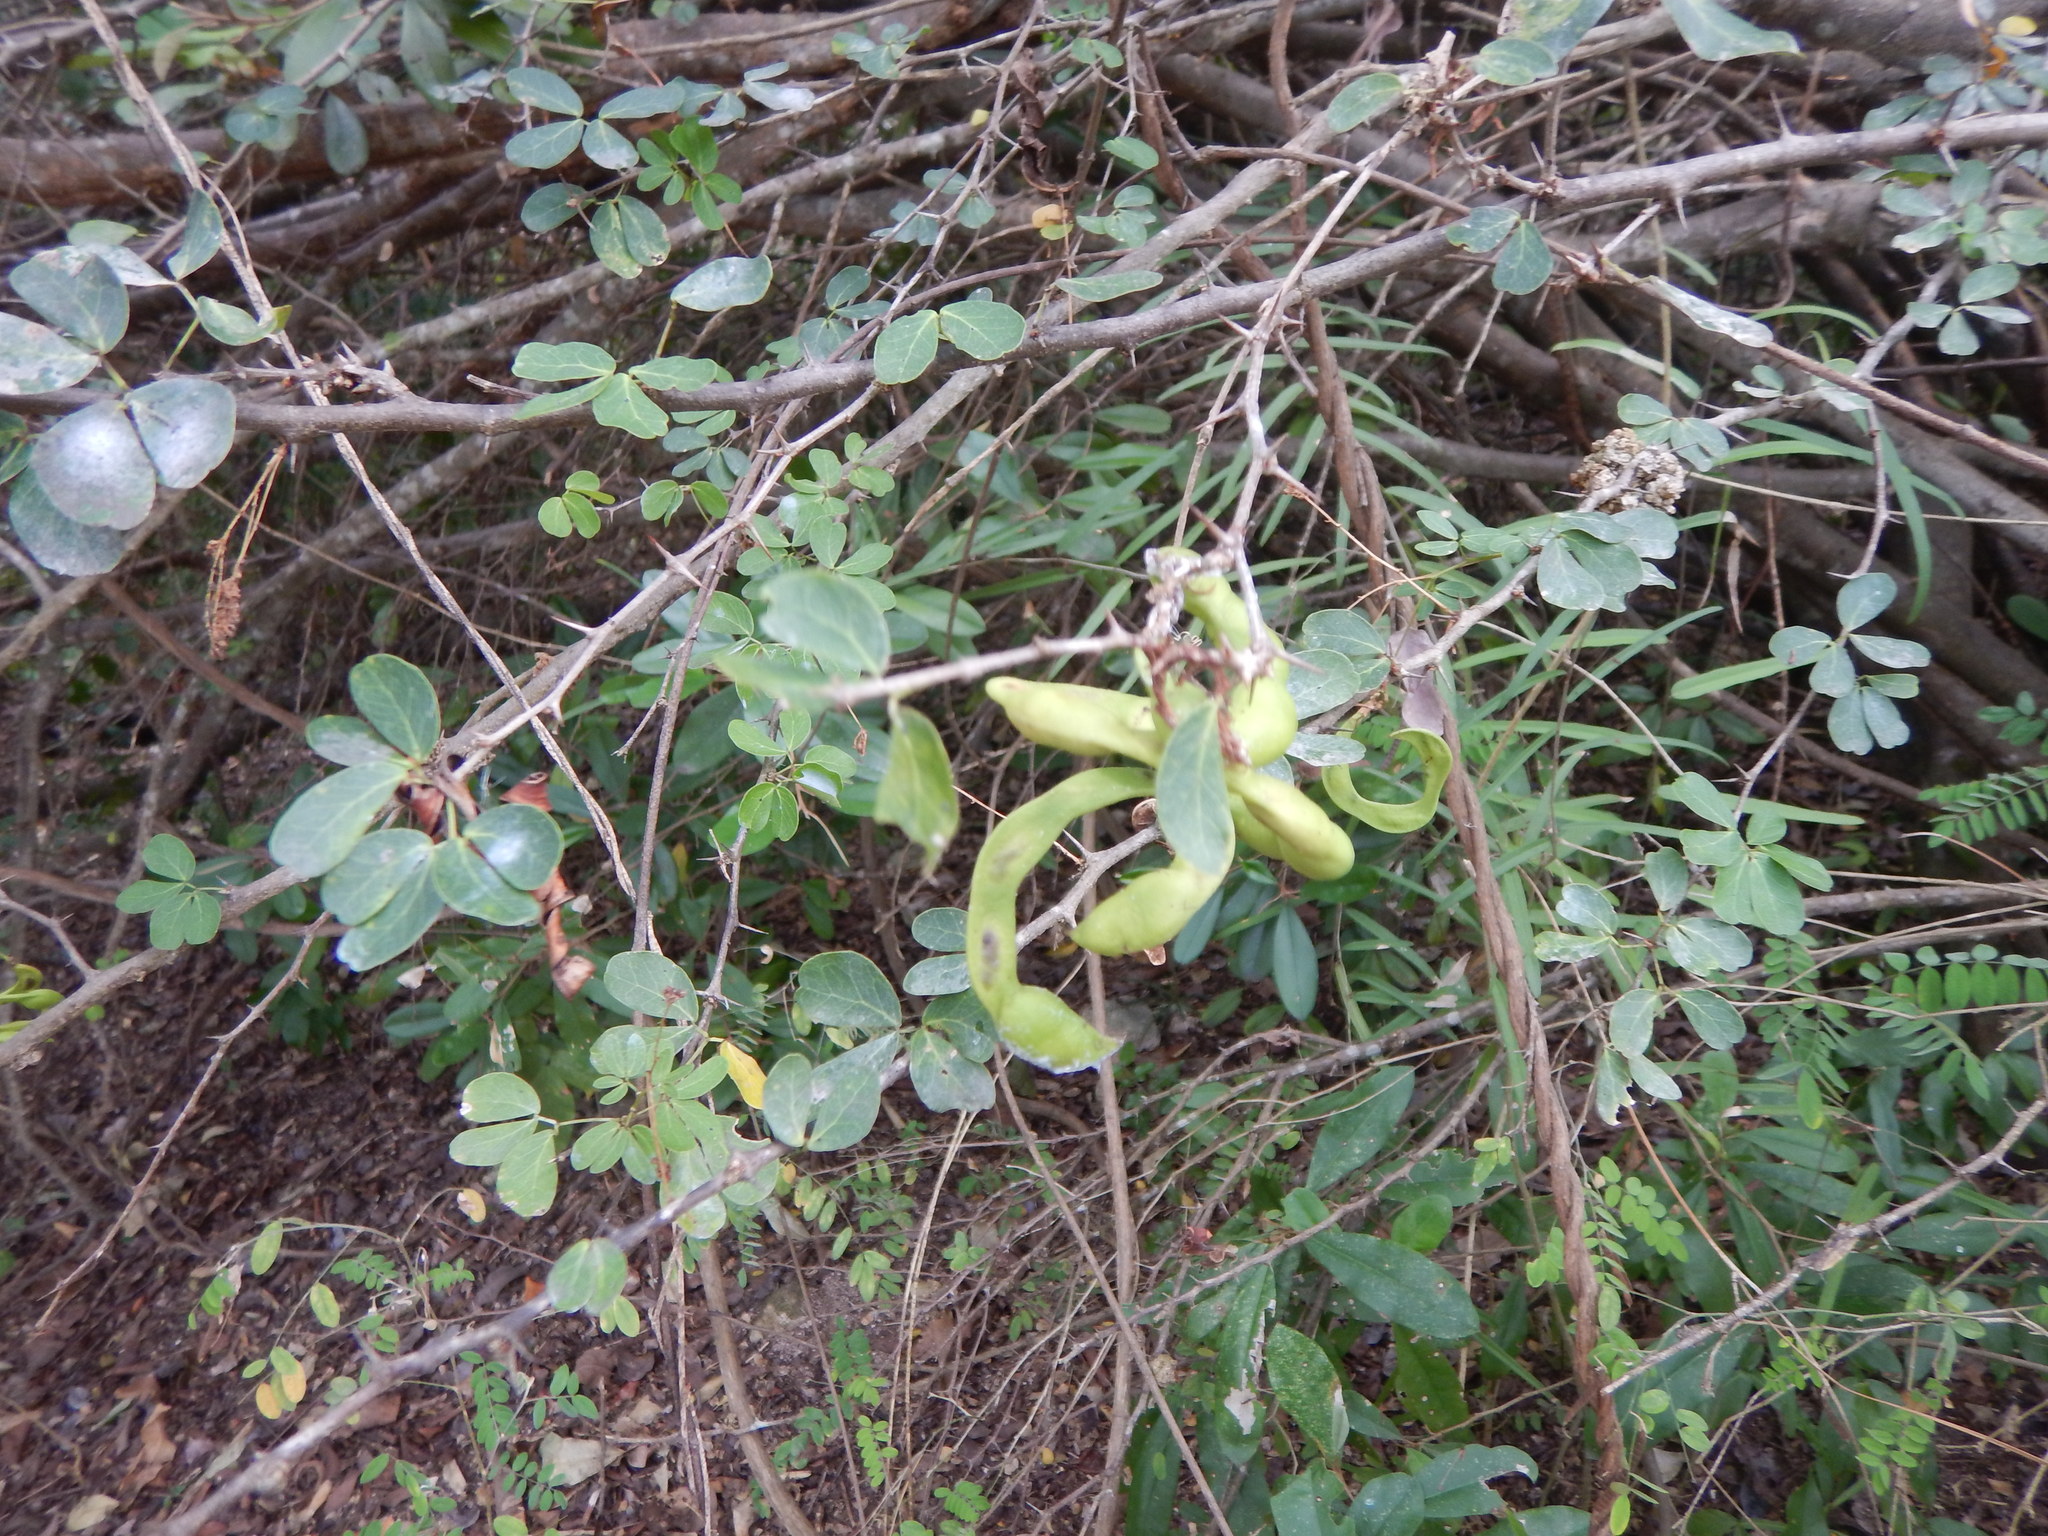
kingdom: Plantae
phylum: Tracheophyta
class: Magnoliopsida
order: Fabales
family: Fabaceae
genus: Pithecellobium
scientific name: Pithecellobium dulce
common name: Monkeypod
